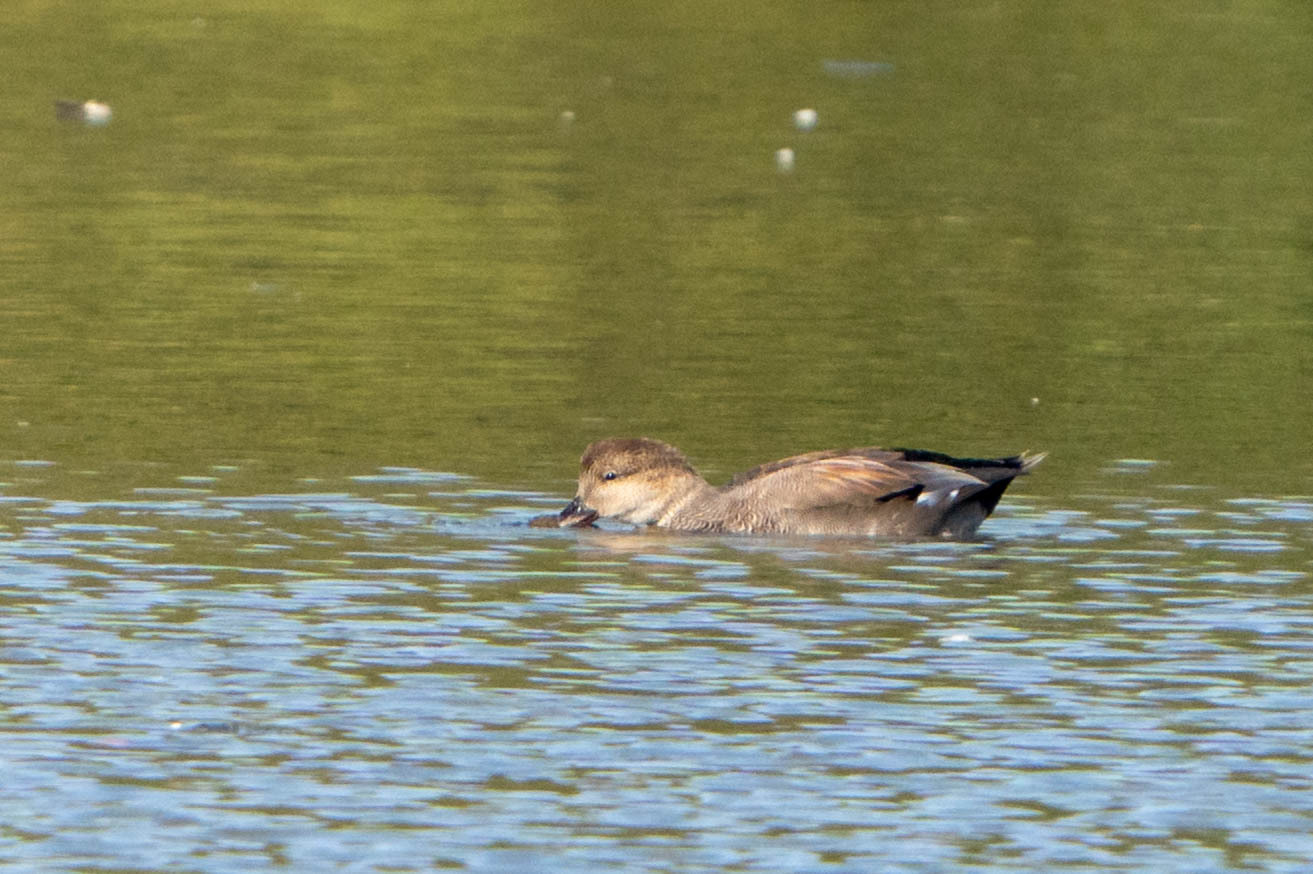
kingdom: Animalia
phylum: Chordata
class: Aves
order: Anseriformes
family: Anatidae
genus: Mareca
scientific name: Mareca strepera
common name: Gadwall
